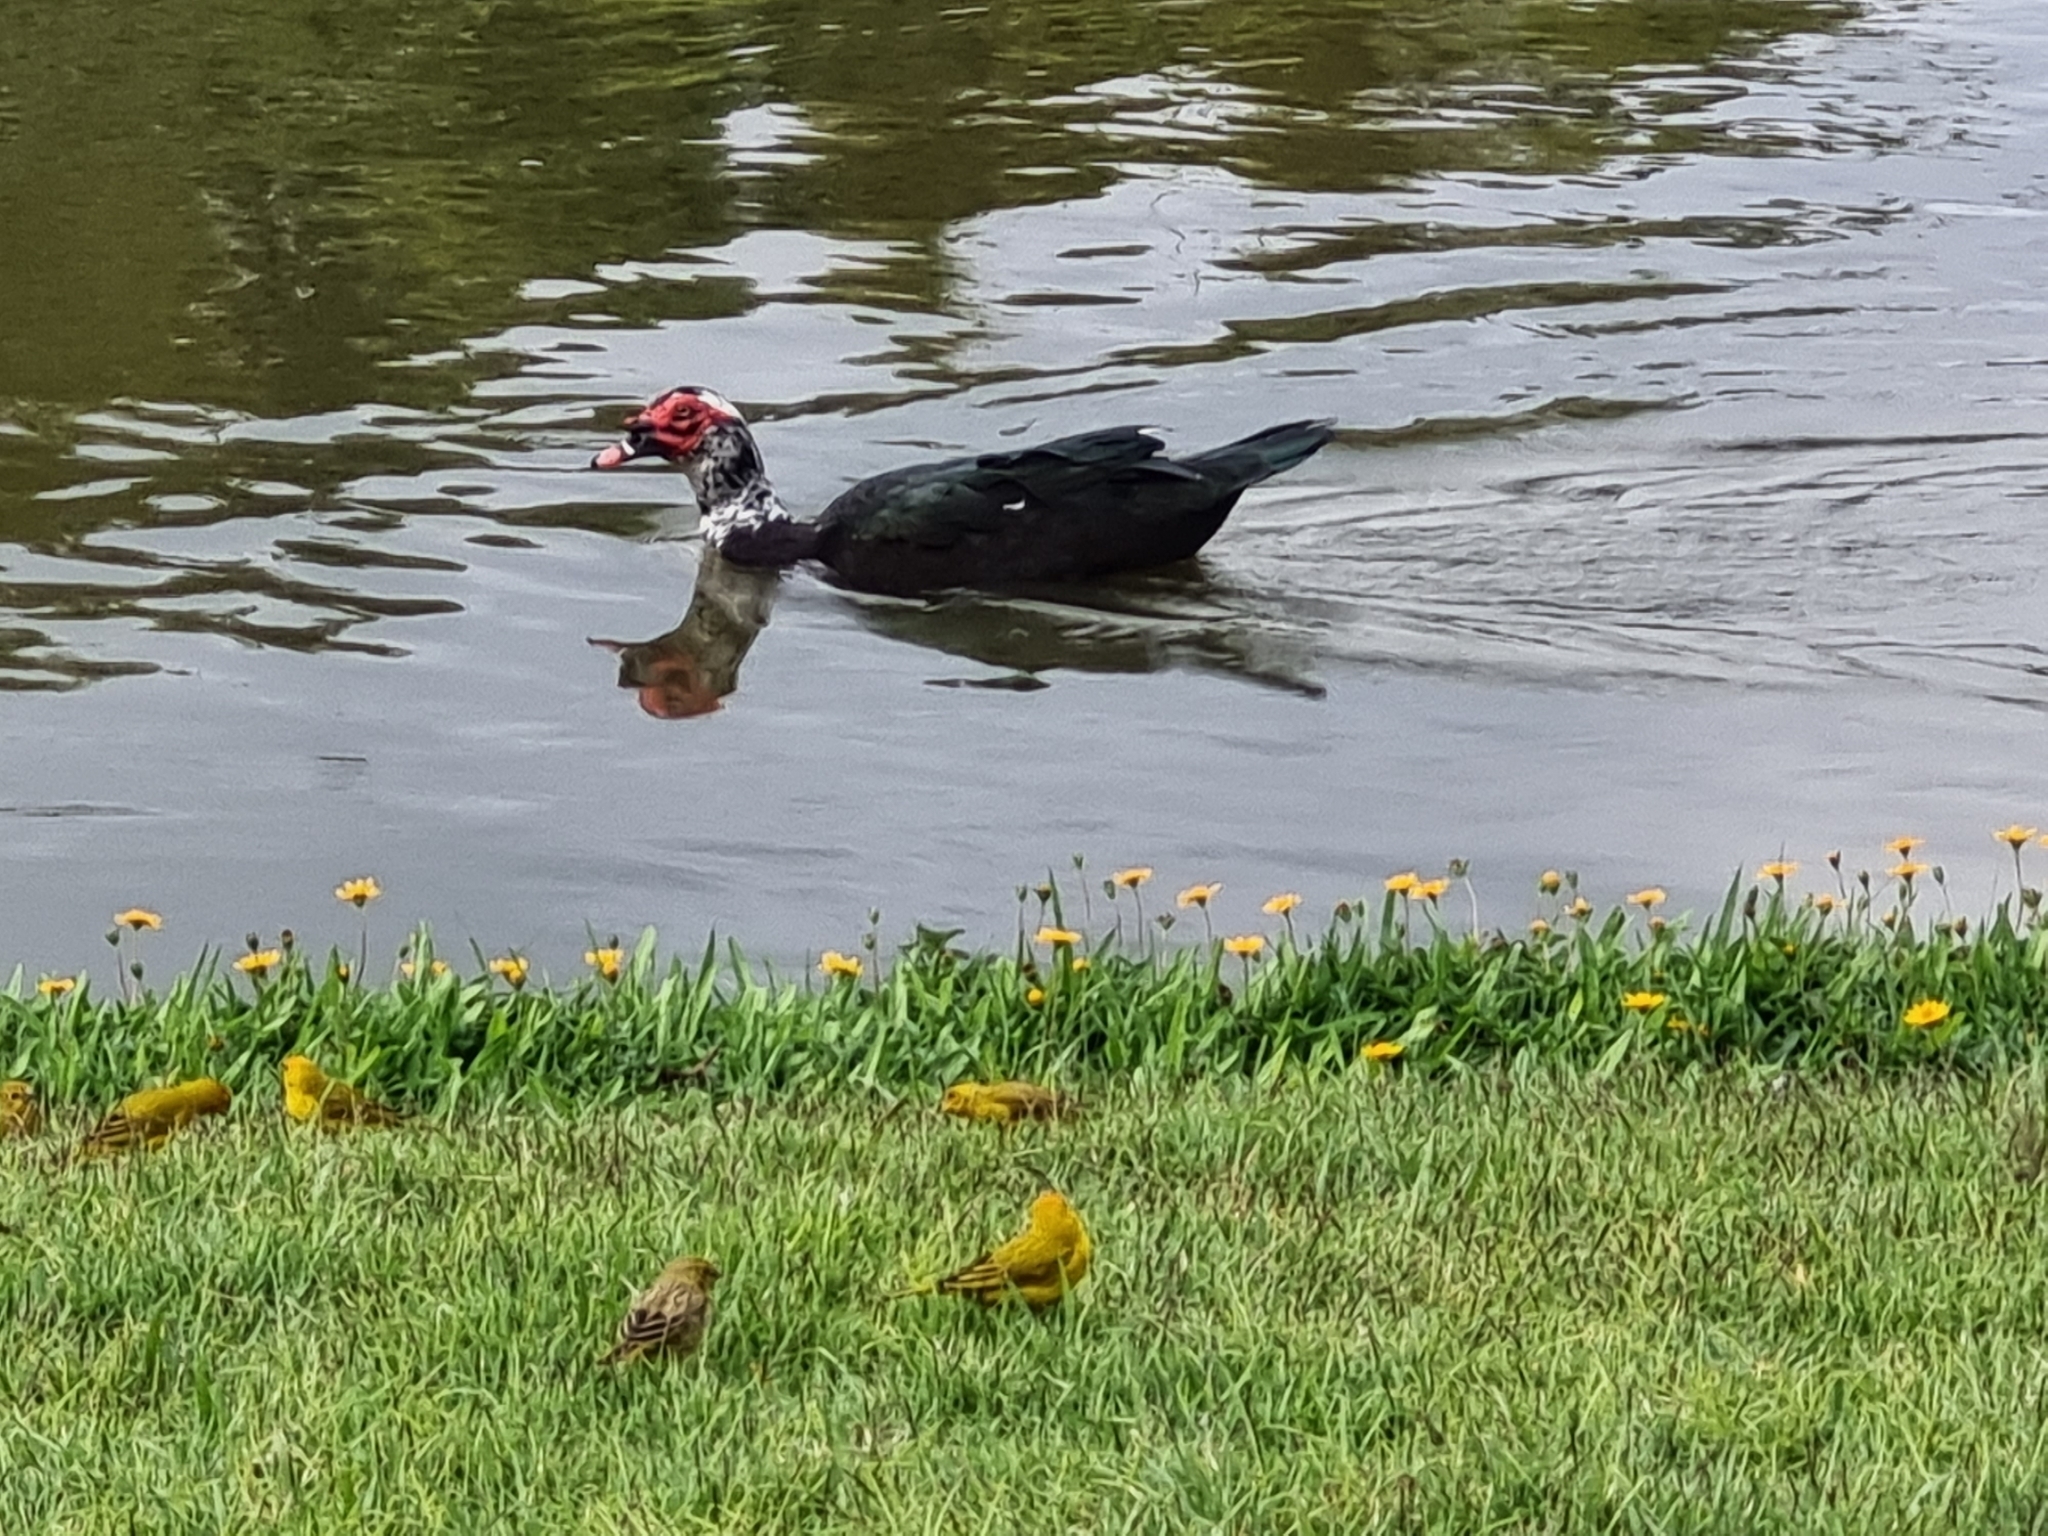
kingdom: Animalia
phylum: Chordata
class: Aves
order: Passeriformes
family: Thraupidae
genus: Sicalis
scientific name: Sicalis flaveola
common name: Saffron finch
